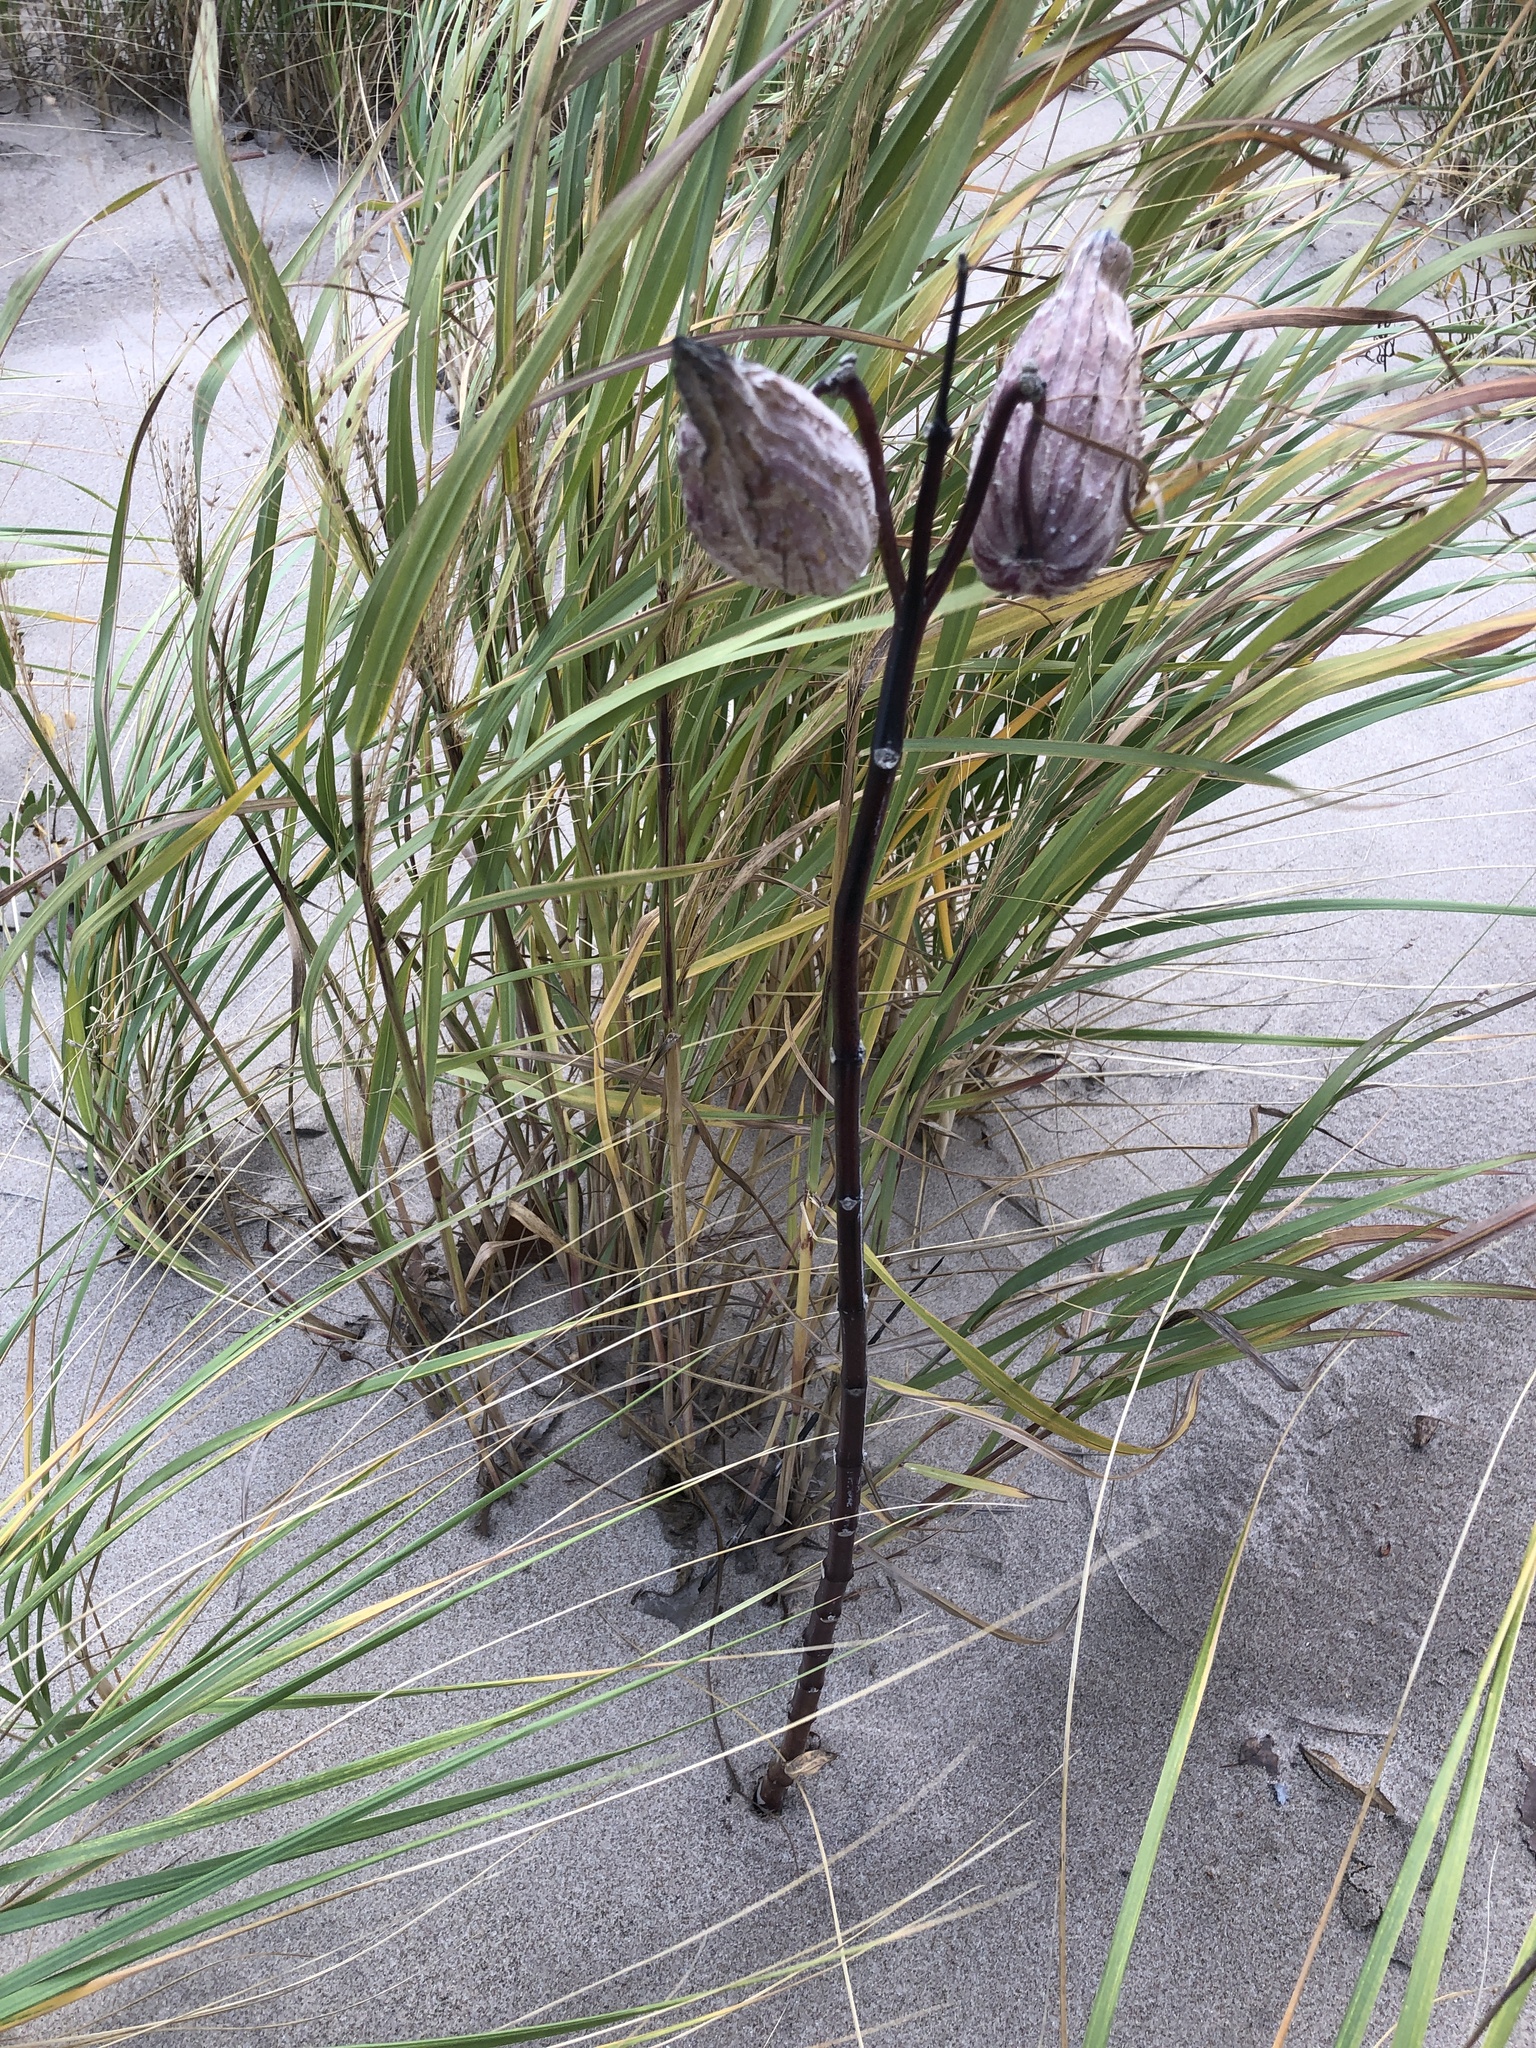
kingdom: Plantae
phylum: Tracheophyta
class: Magnoliopsida
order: Gentianales
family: Apocynaceae
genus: Asclepias
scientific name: Asclepias syriaca
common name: Common milkweed
